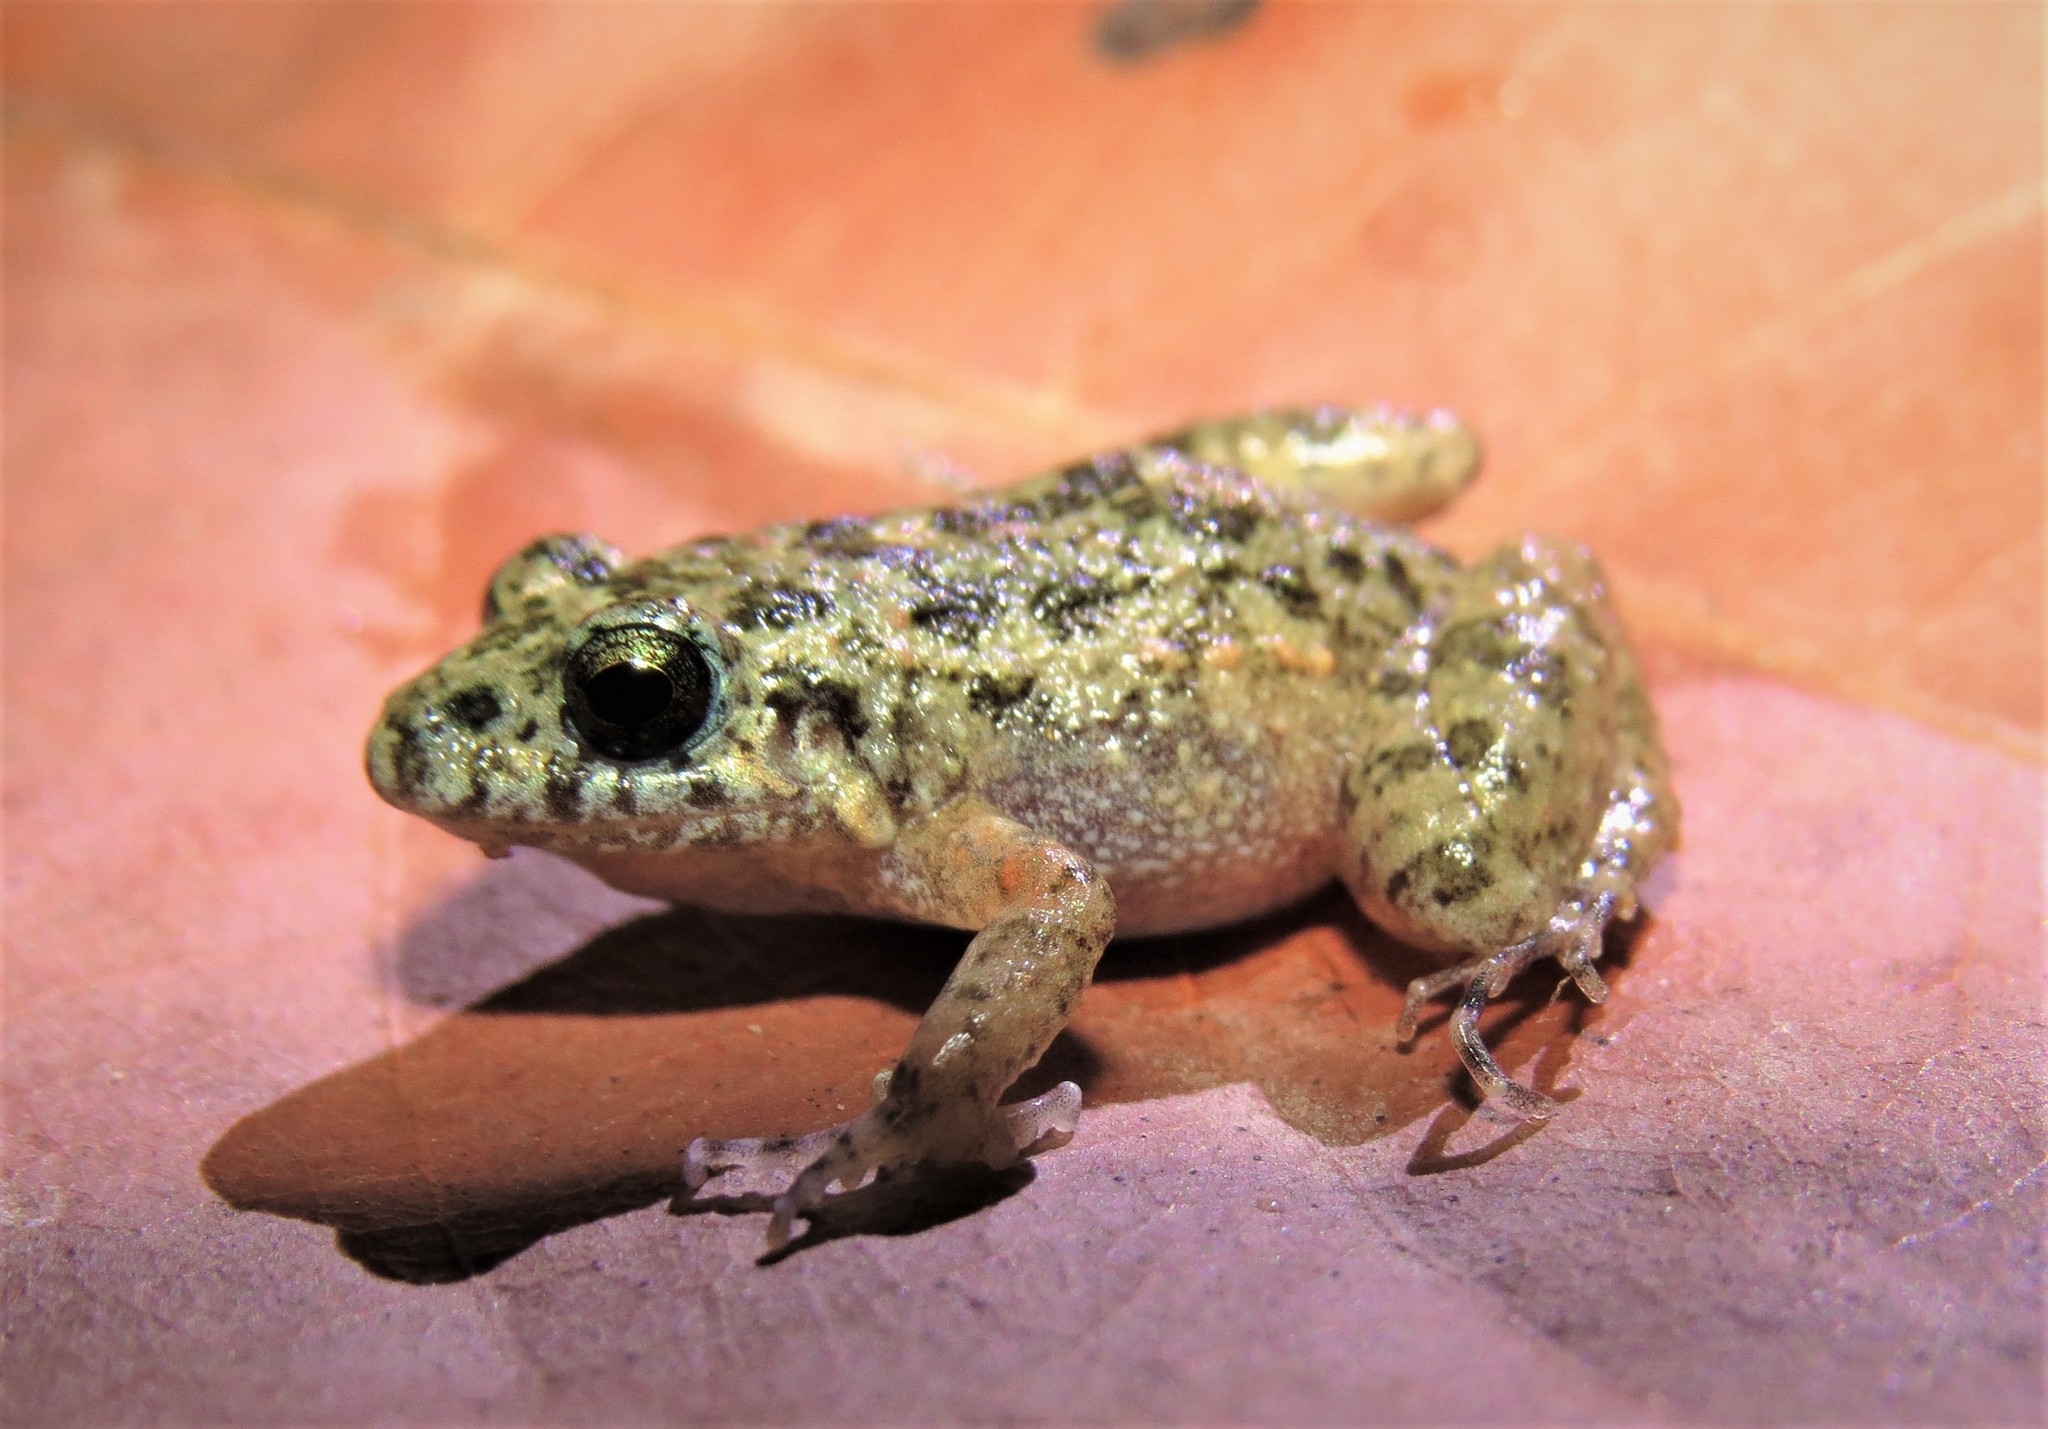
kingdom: Animalia
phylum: Chordata
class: Amphibia
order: Anura
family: Leptodactylidae
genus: Adenomera
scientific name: Adenomera juikitam
